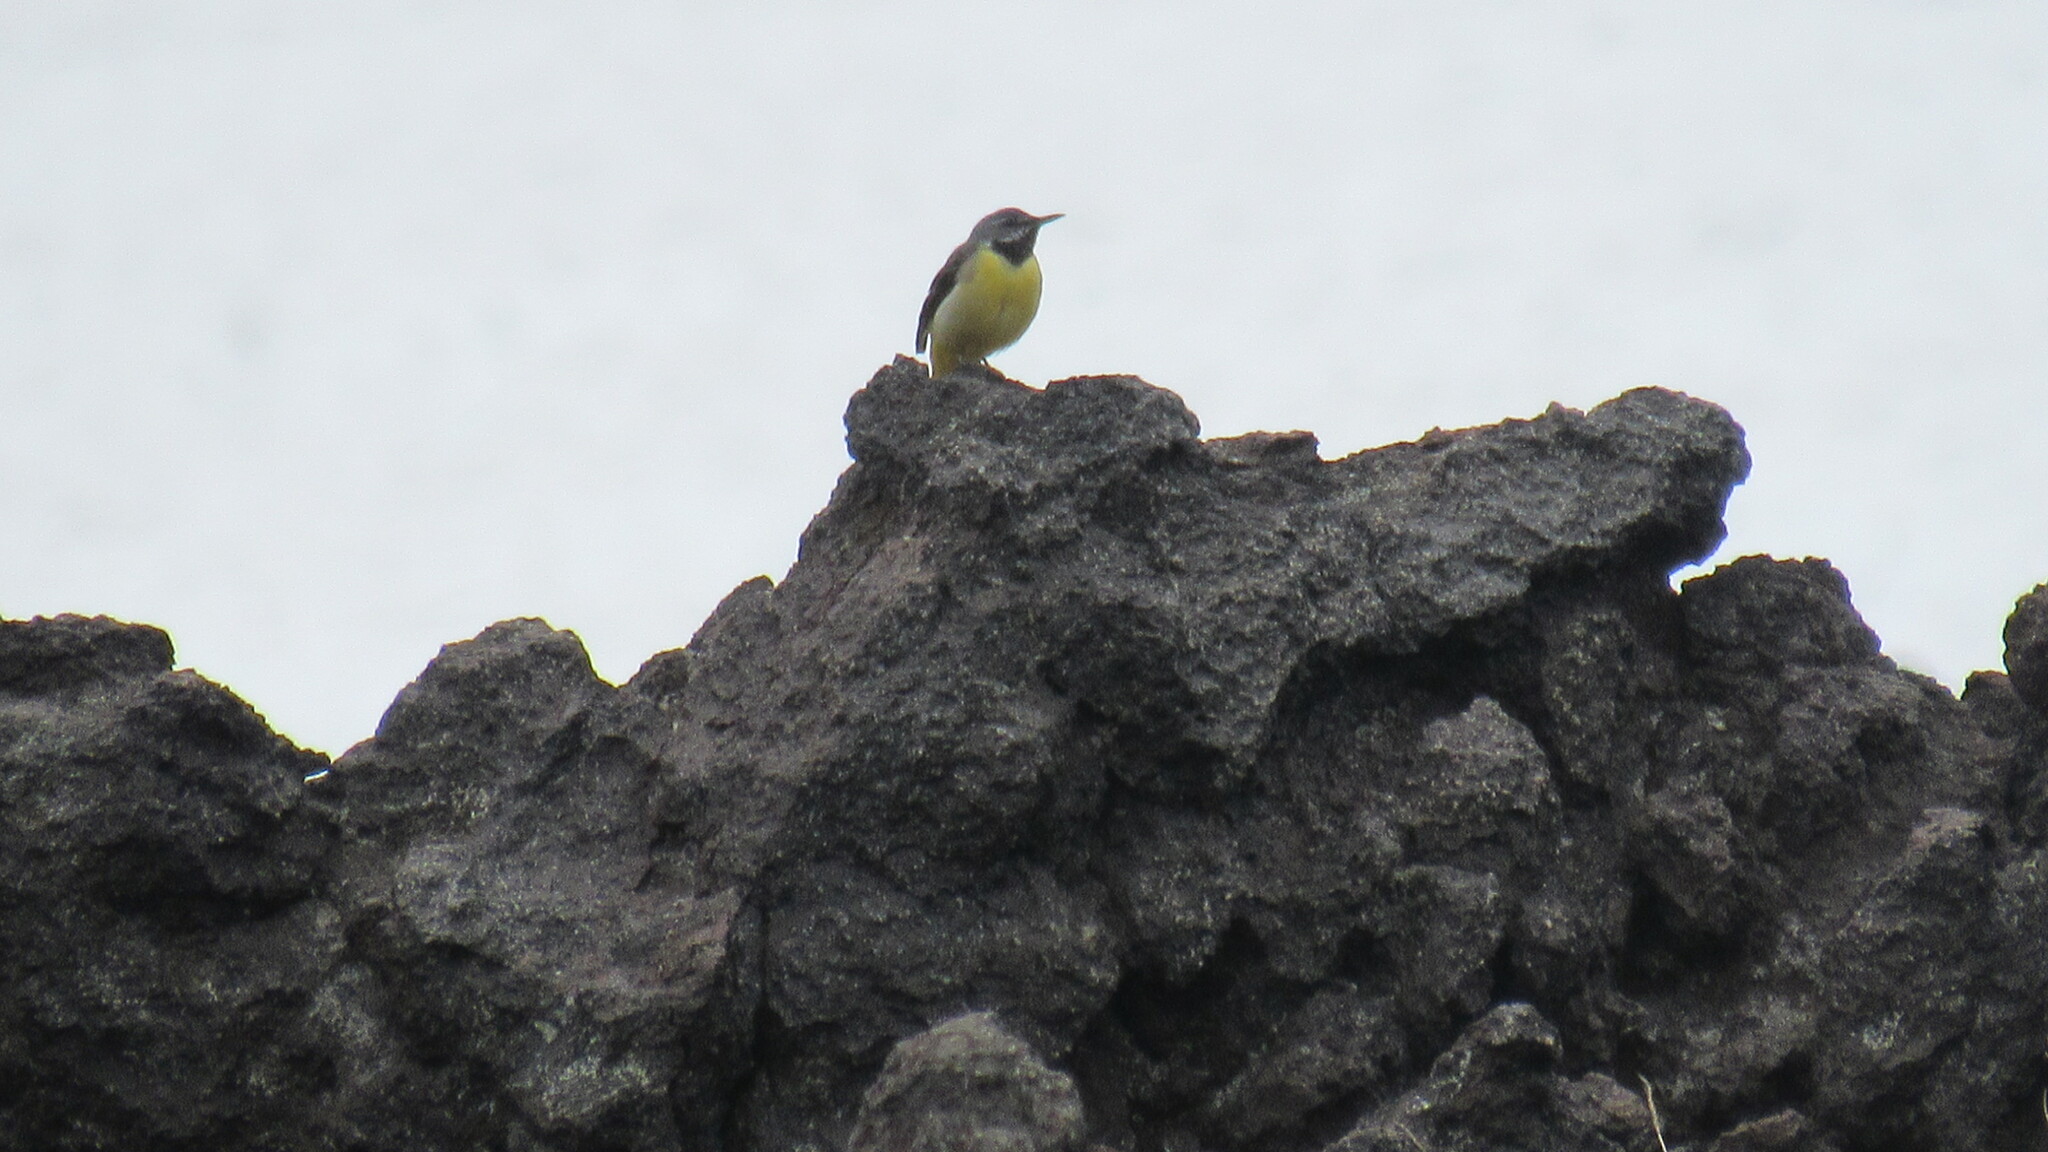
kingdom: Animalia
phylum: Chordata
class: Aves
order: Passeriformes
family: Motacillidae
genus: Motacilla
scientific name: Motacilla cinerea
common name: Grey wagtail
